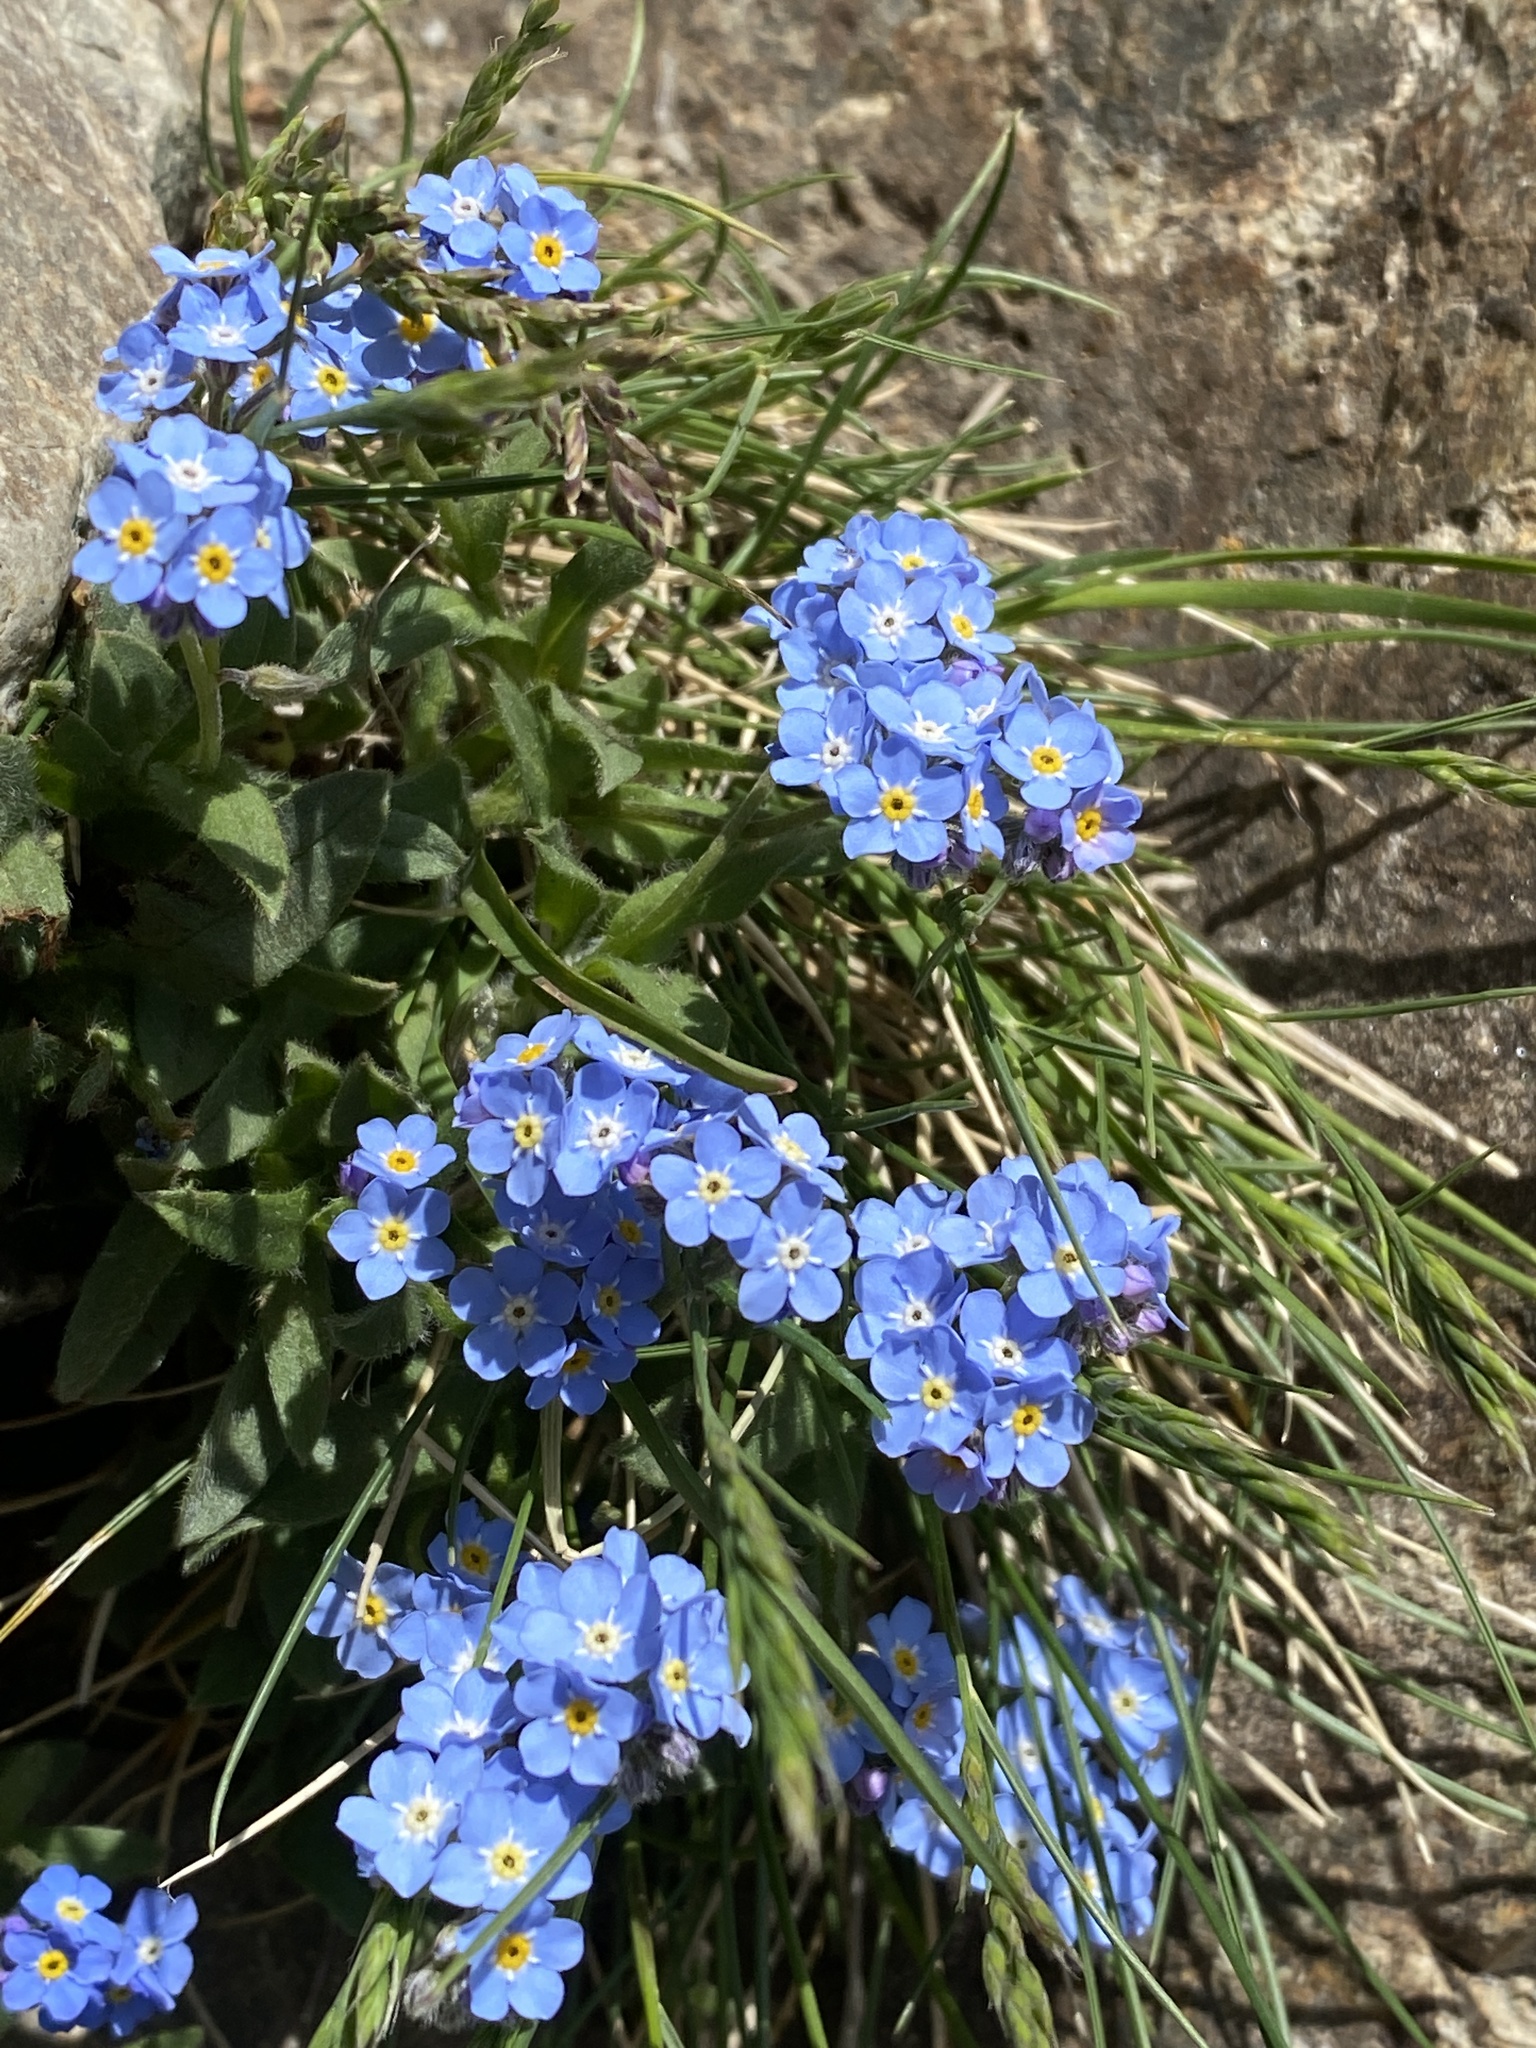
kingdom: Plantae
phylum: Tracheophyta
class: Magnoliopsida
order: Boraginales
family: Boraginaceae
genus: Myosotis
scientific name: Myosotis alpestris
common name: Alpine forget-me-not
